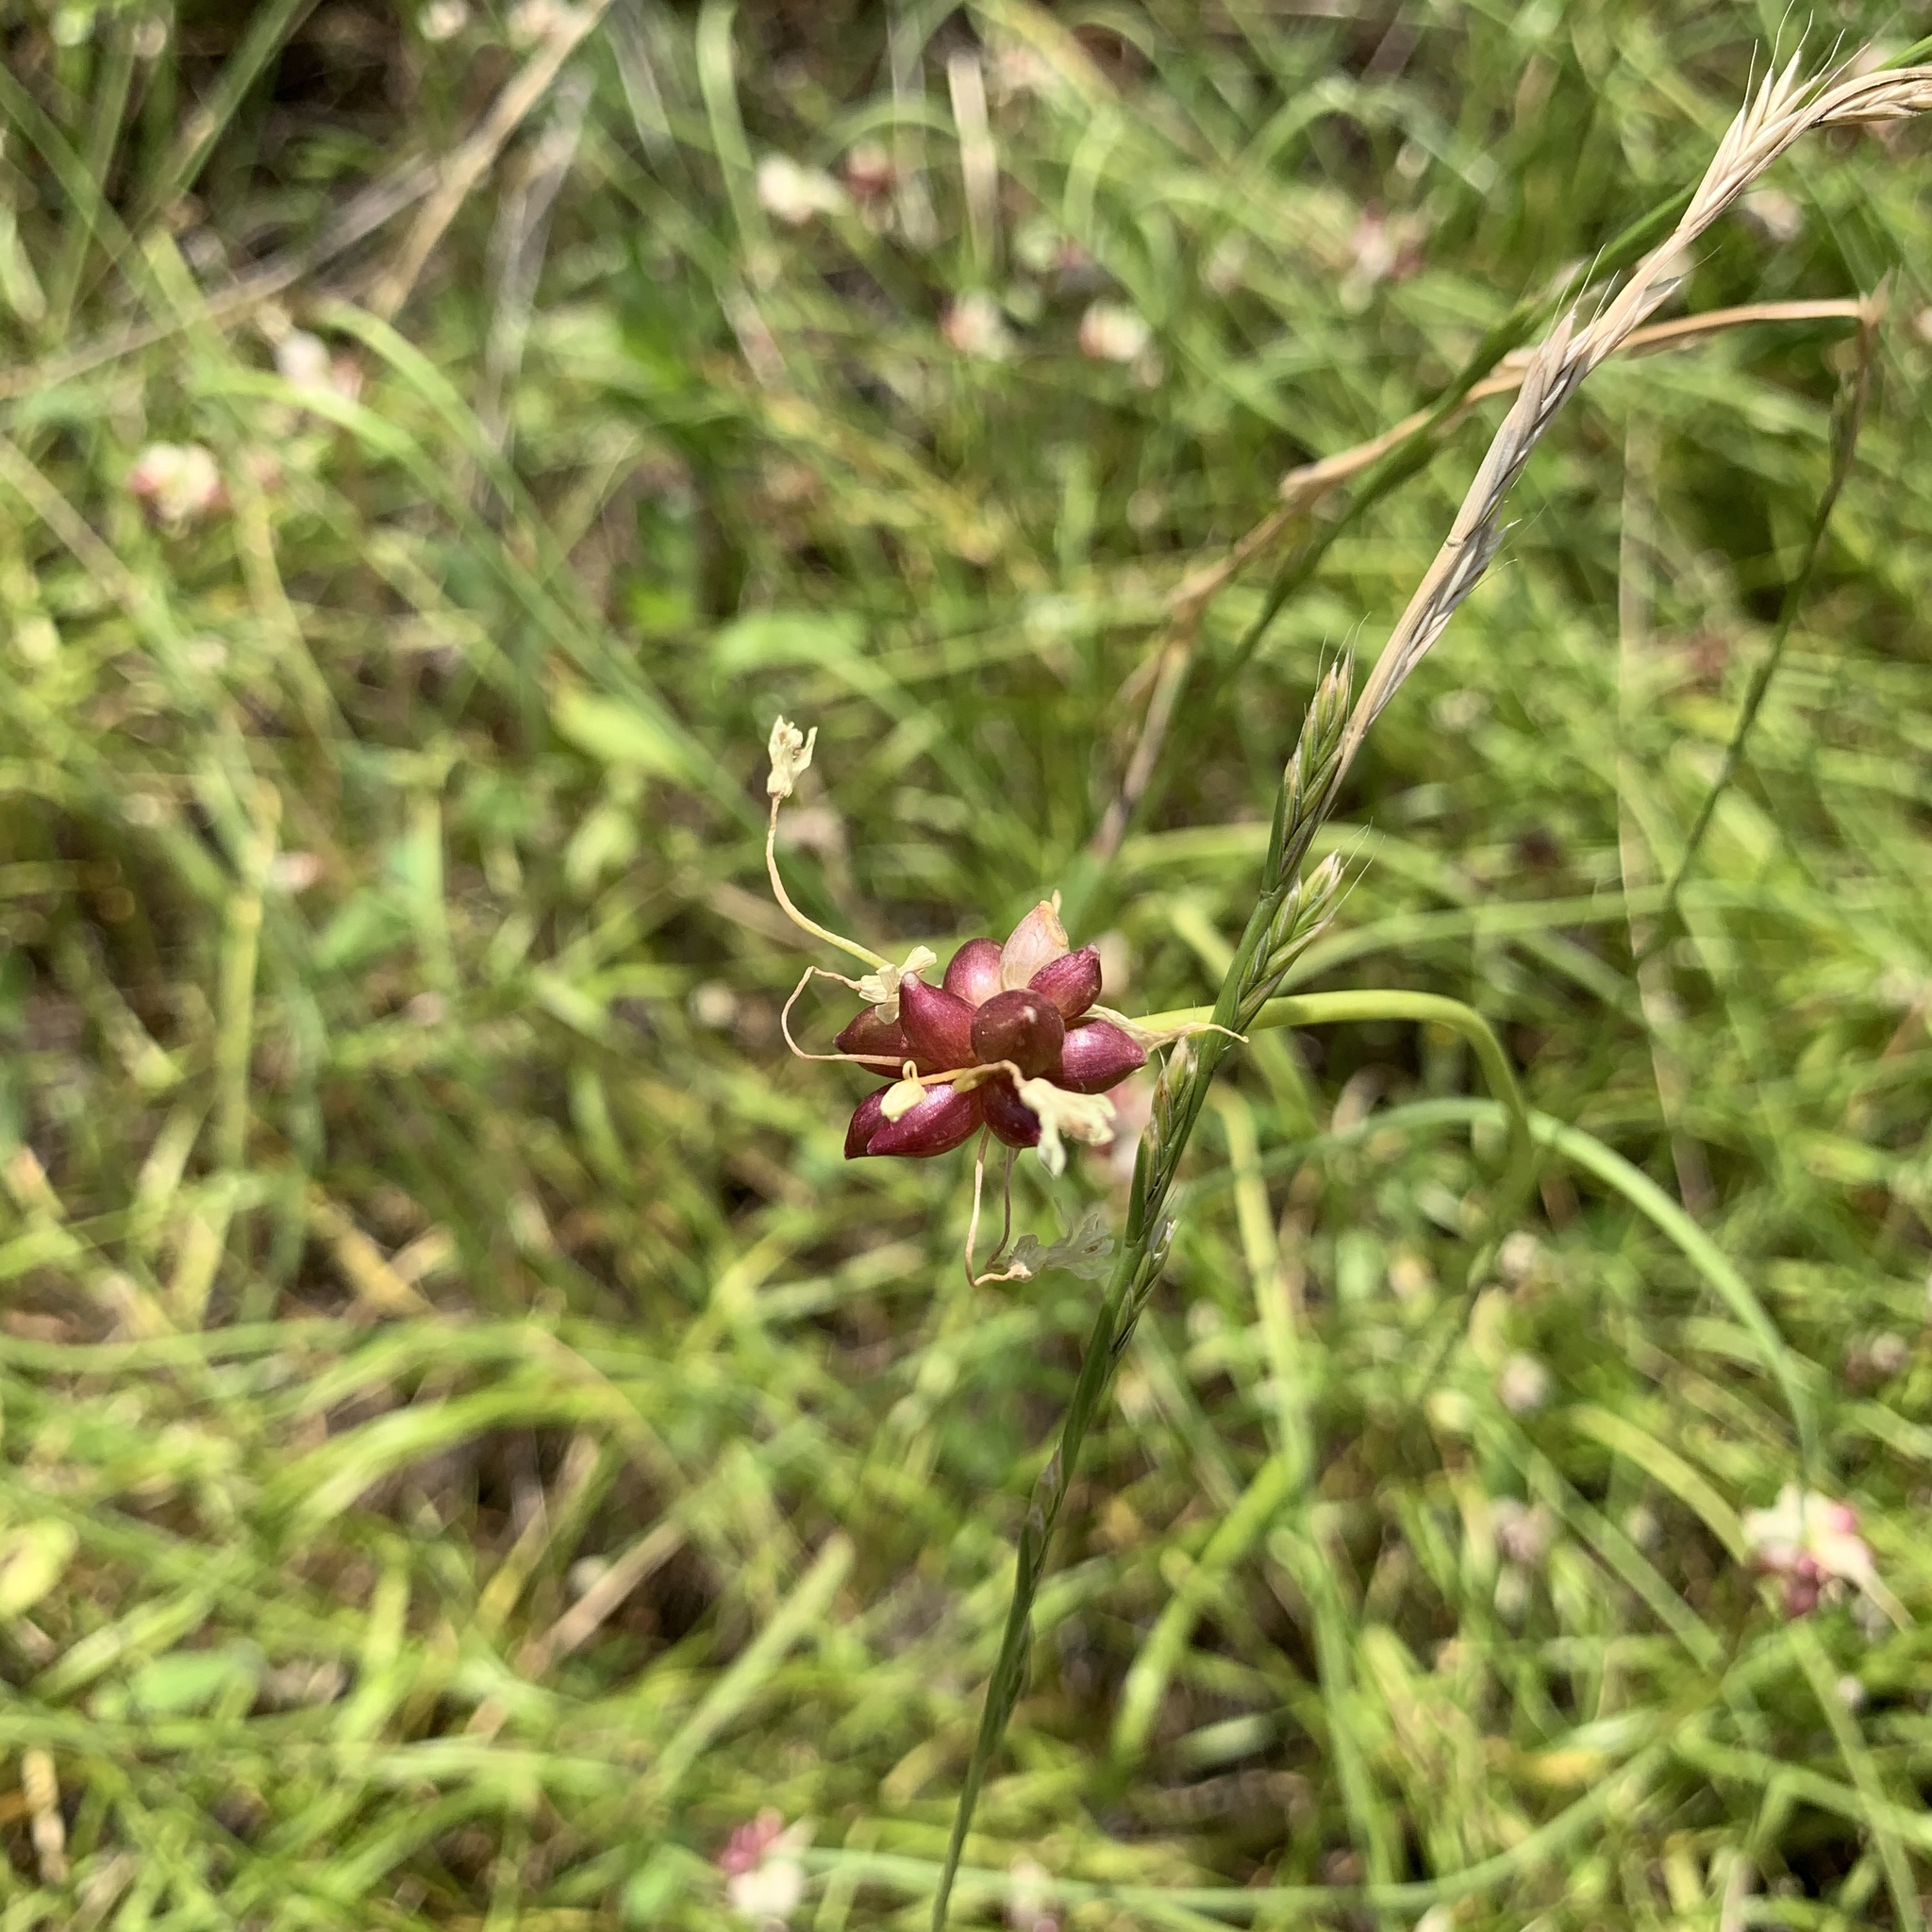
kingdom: Plantae
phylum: Tracheophyta
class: Liliopsida
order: Asparagales
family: Amaryllidaceae
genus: Allium
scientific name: Allium canadense
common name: Meadow garlic
